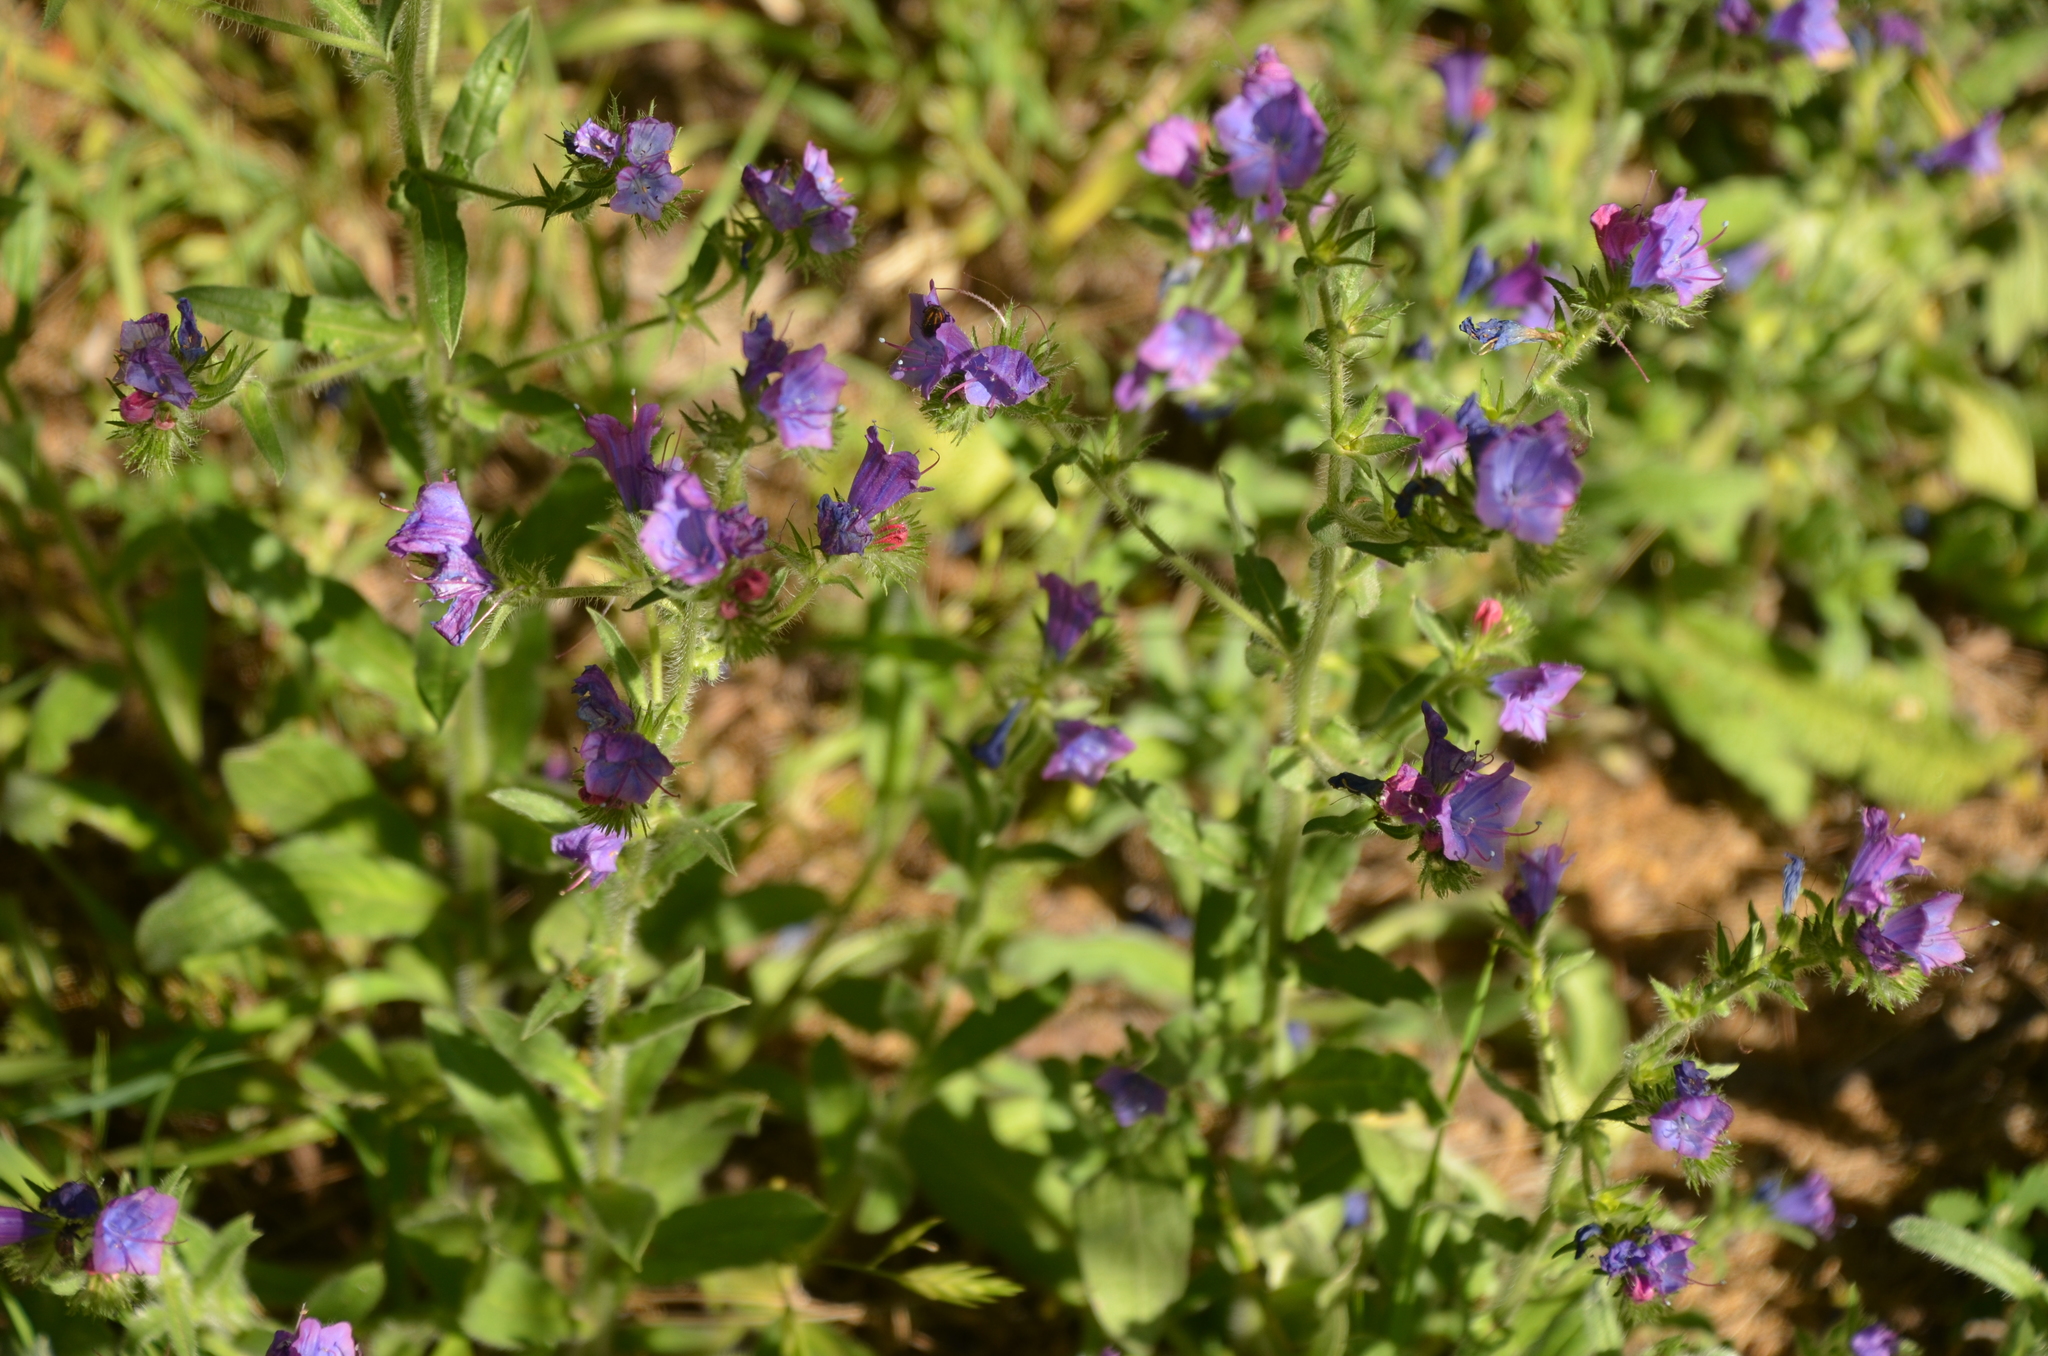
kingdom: Plantae
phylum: Tracheophyta
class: Magnoliopsida
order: Boraginales
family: Boraginaceae
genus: Echium
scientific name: Echium plantagineum
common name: Purple viper's-bugloss
